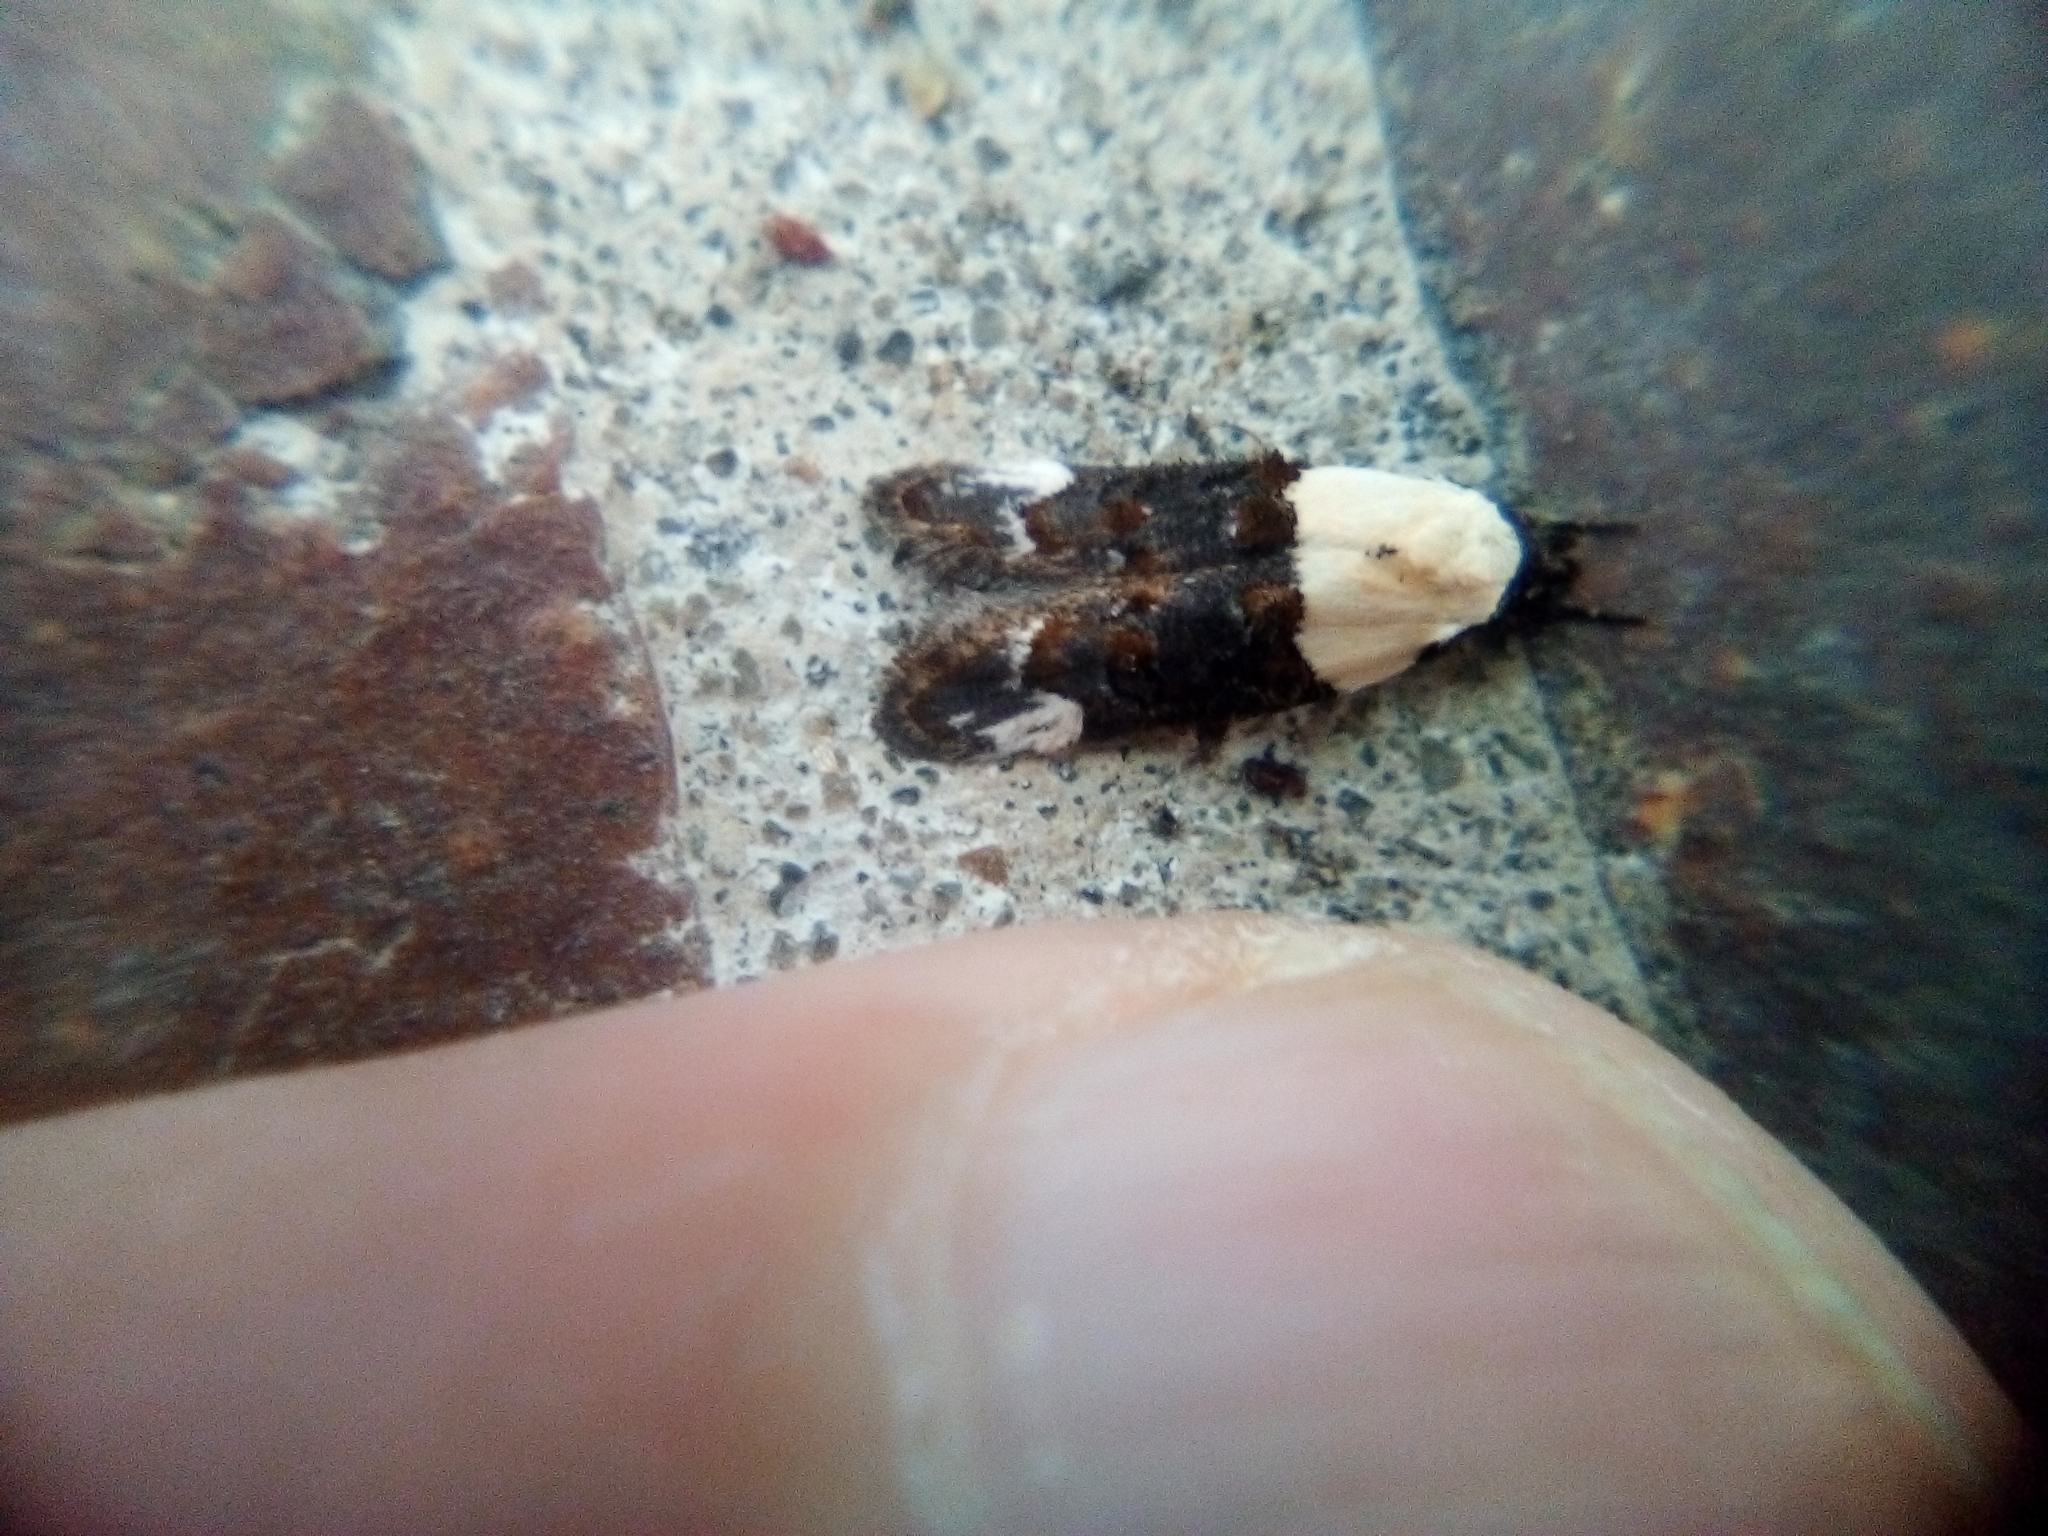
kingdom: Animalia
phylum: Arthropoda
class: Insecta
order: Lepidoptera
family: Oecophoridae
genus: Trachypepla
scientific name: Trachypepla euryleucota
